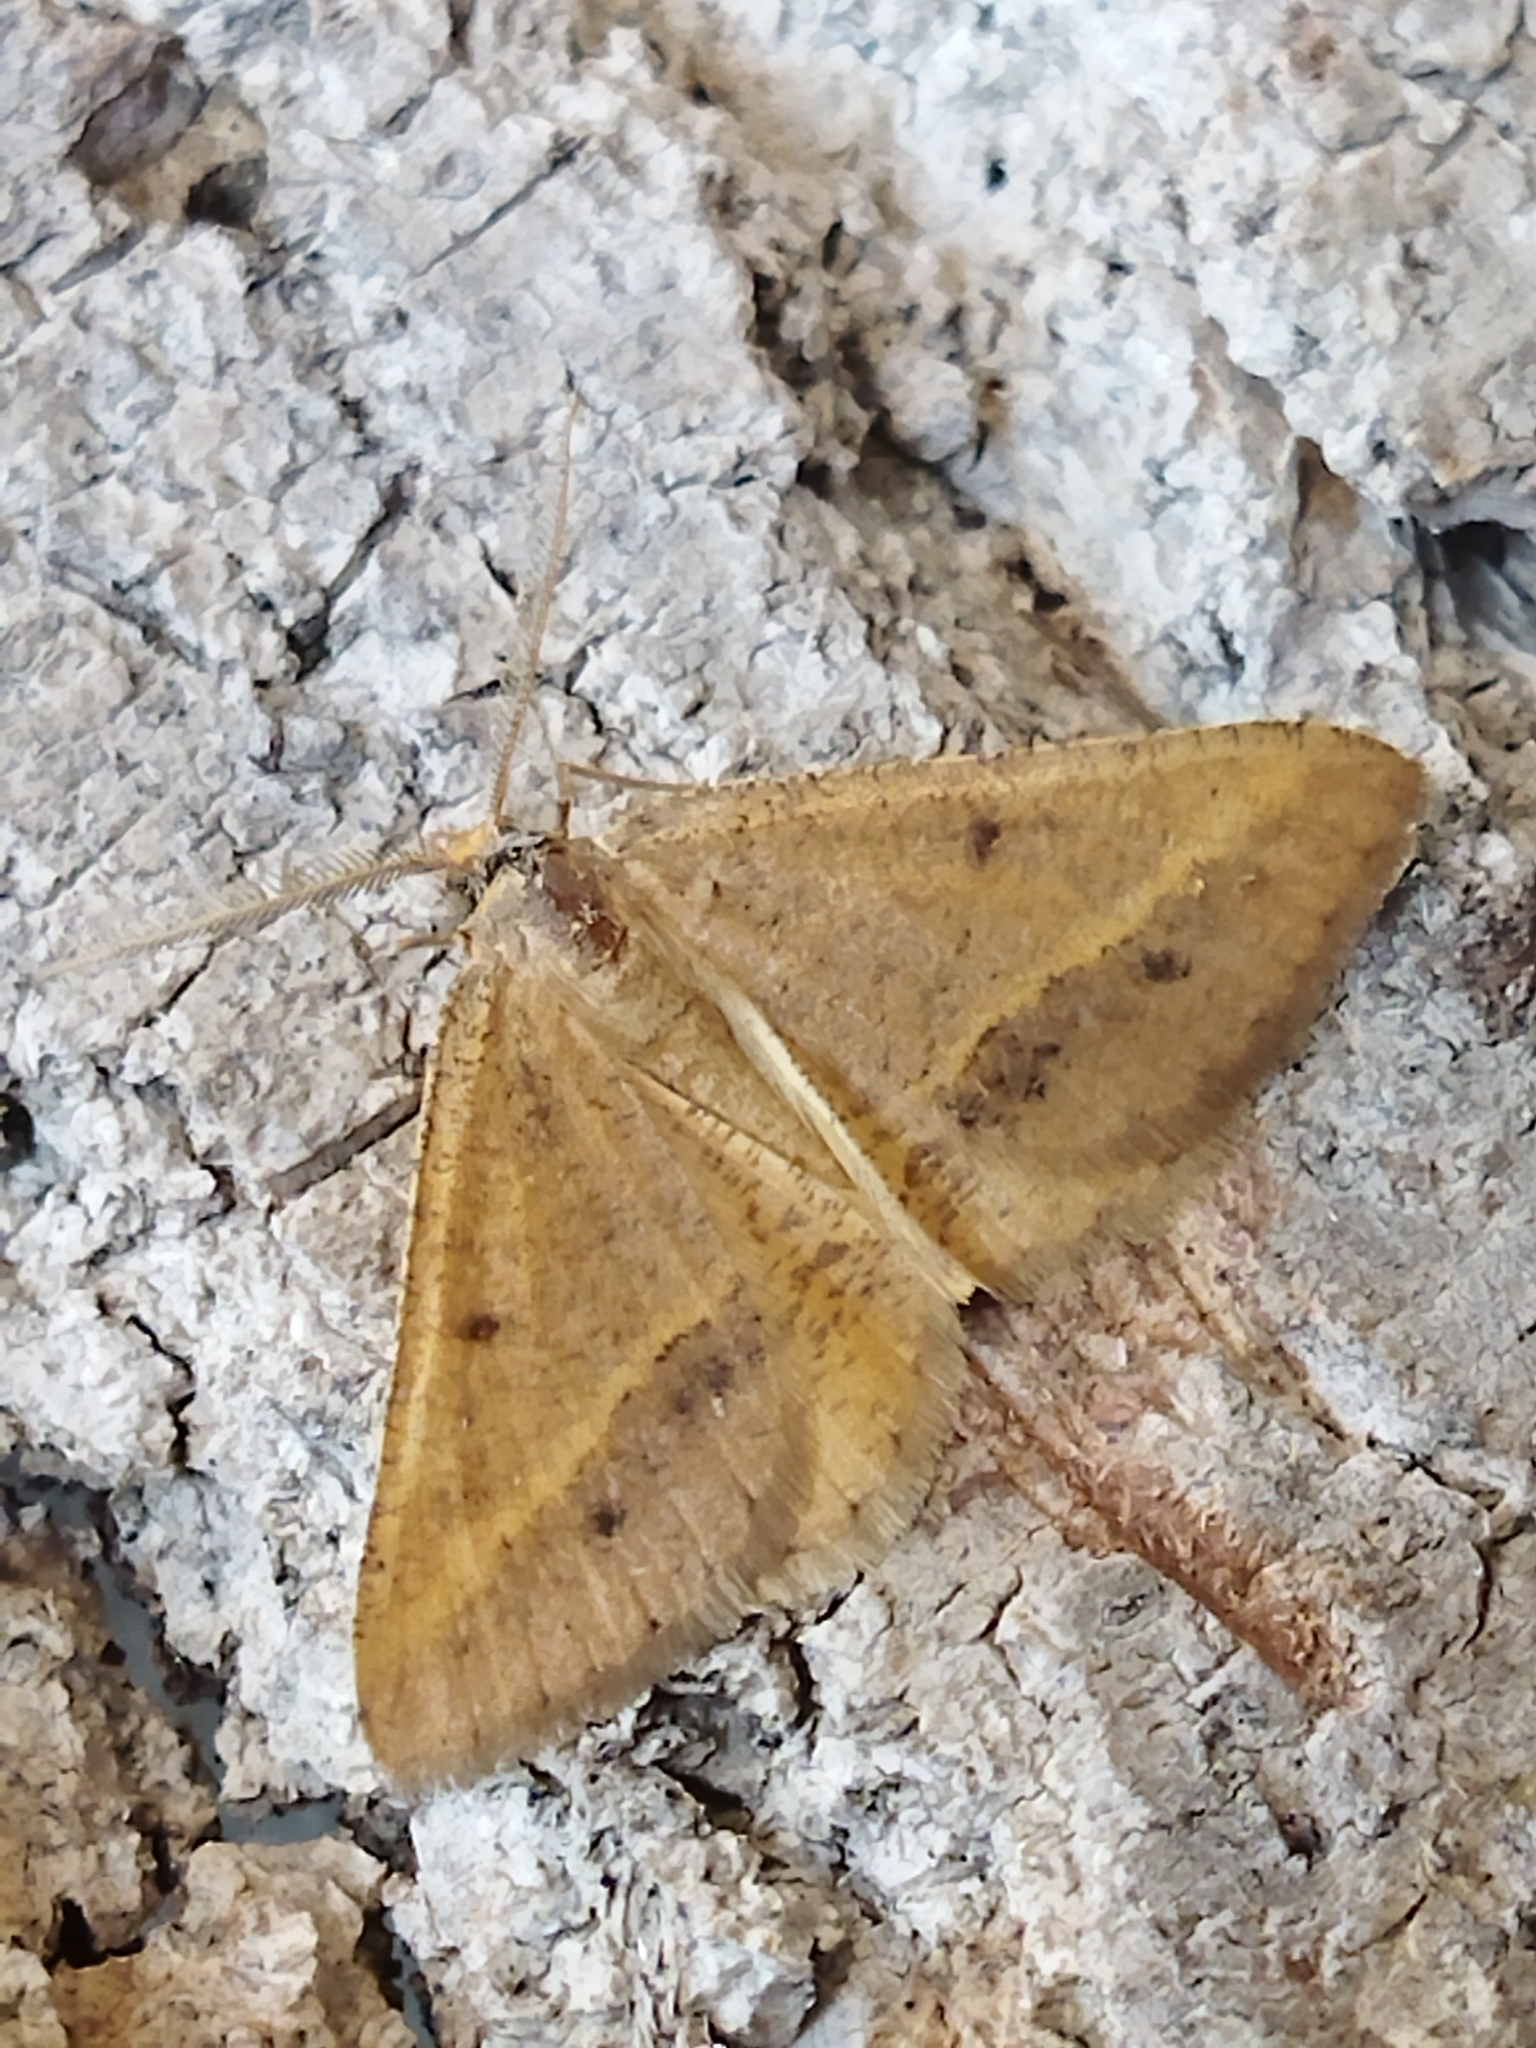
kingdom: Animalia
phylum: Arthropoda
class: Insecta
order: Lepidoptera
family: Geometridae
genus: Tephrina
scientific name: Tephrina arenacearia
